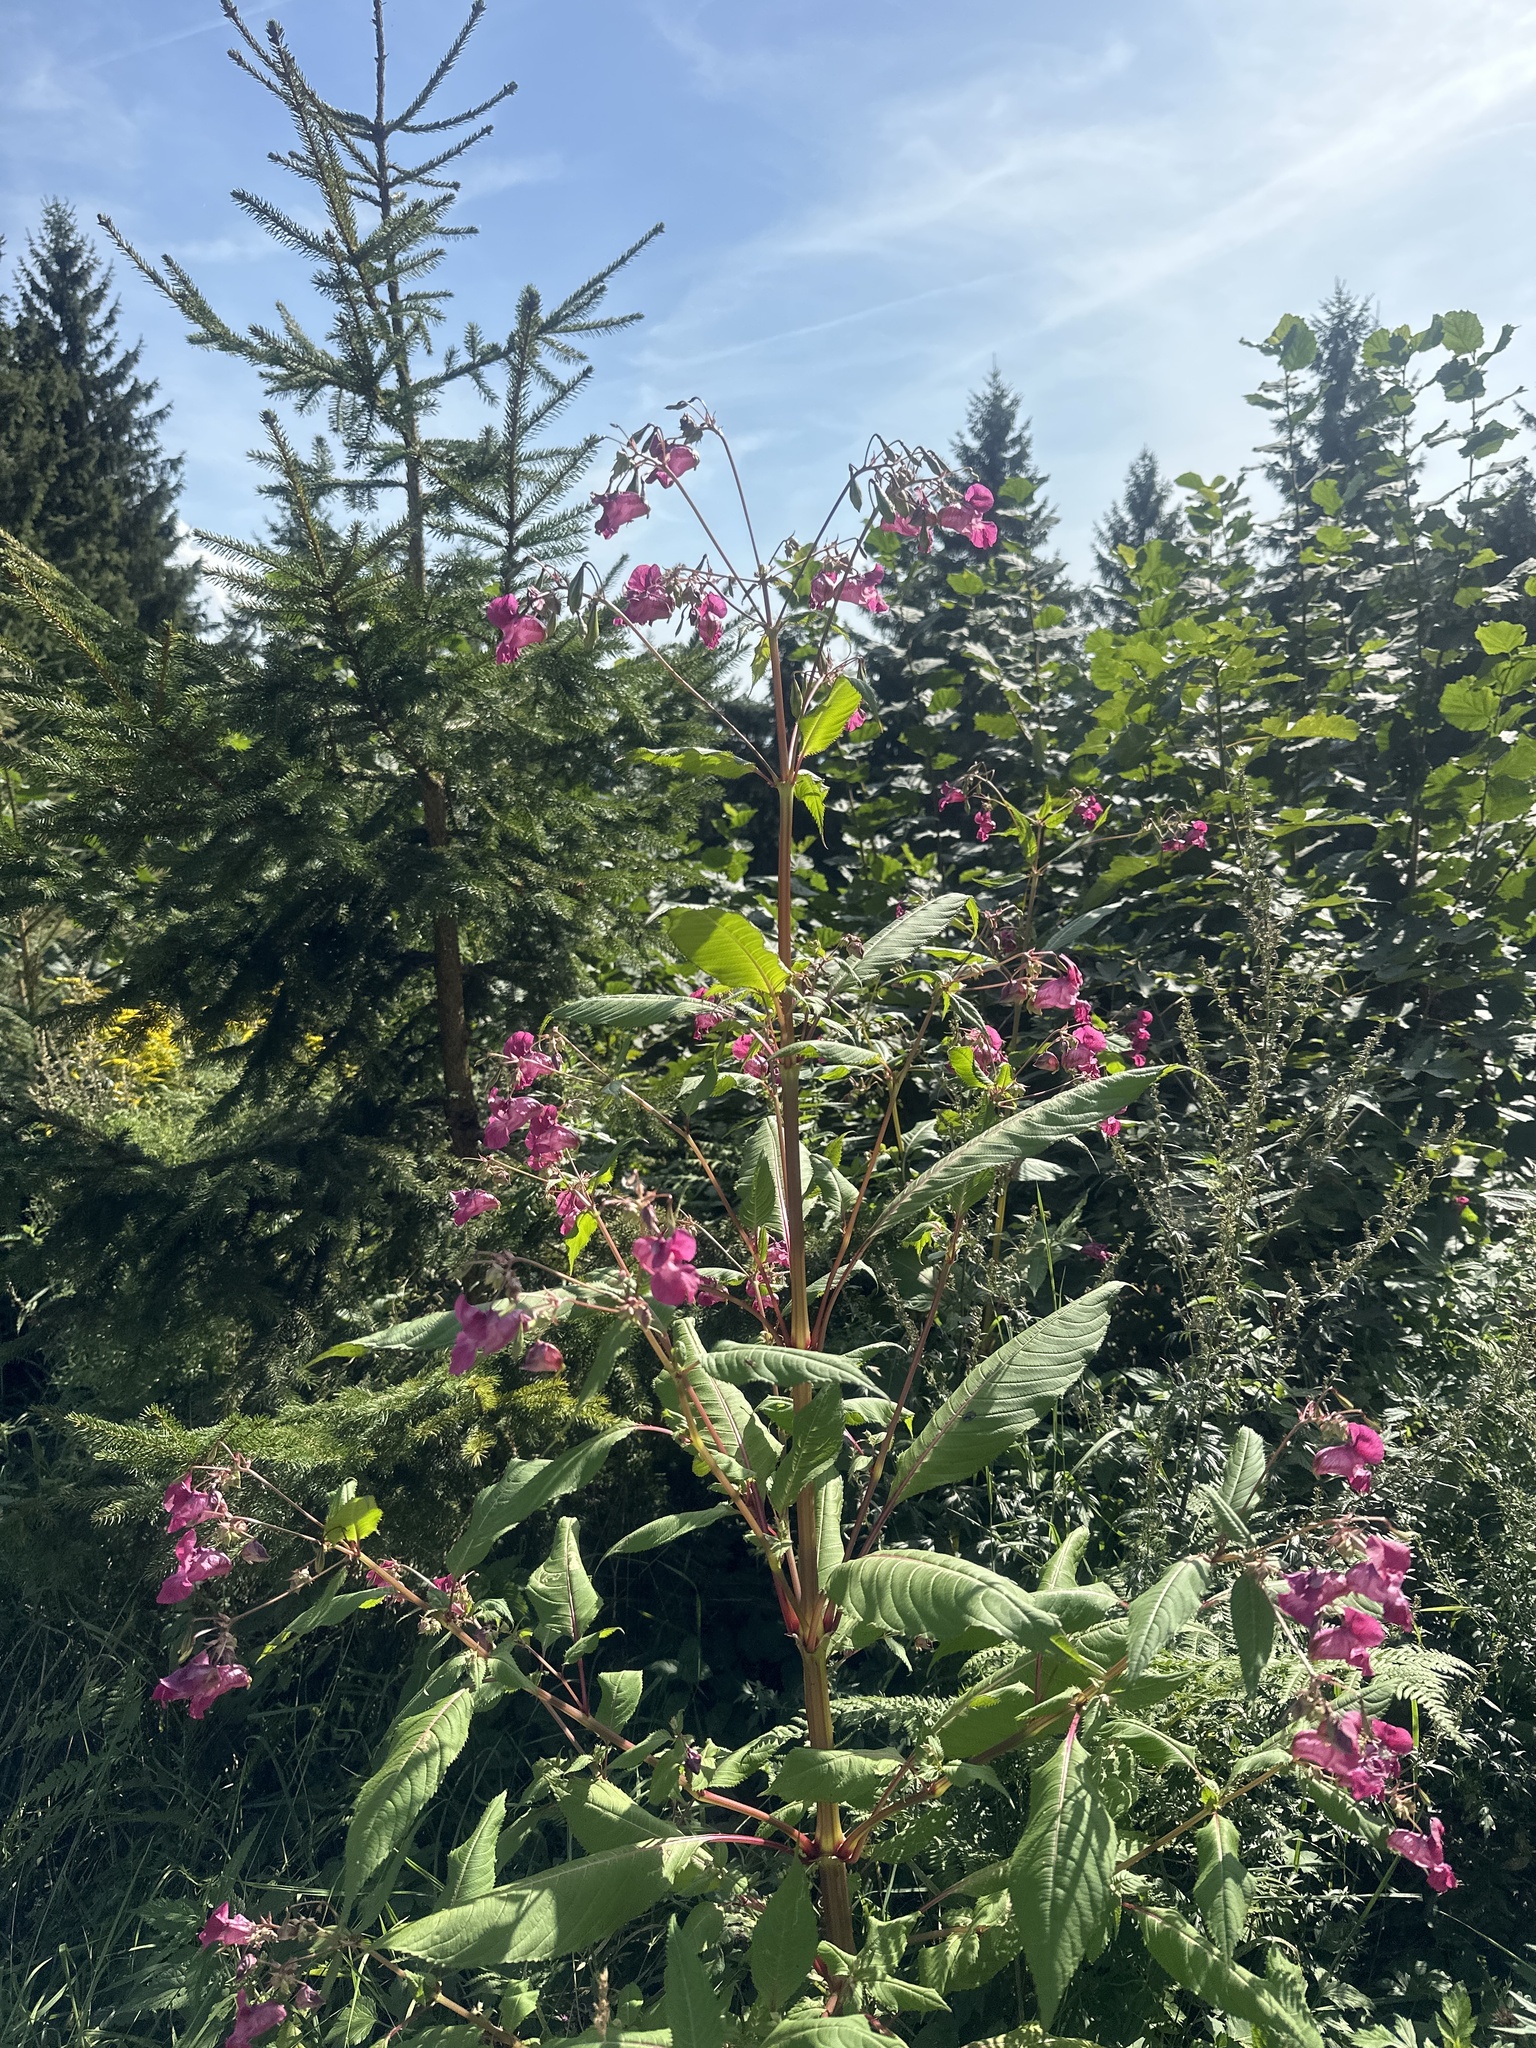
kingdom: Plantae
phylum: Tracheophyta
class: Magnoliopsida
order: Ericales
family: Balsaminaceae
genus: Impatiens
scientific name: Impatiens glandulifera
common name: Himalayan balsam
